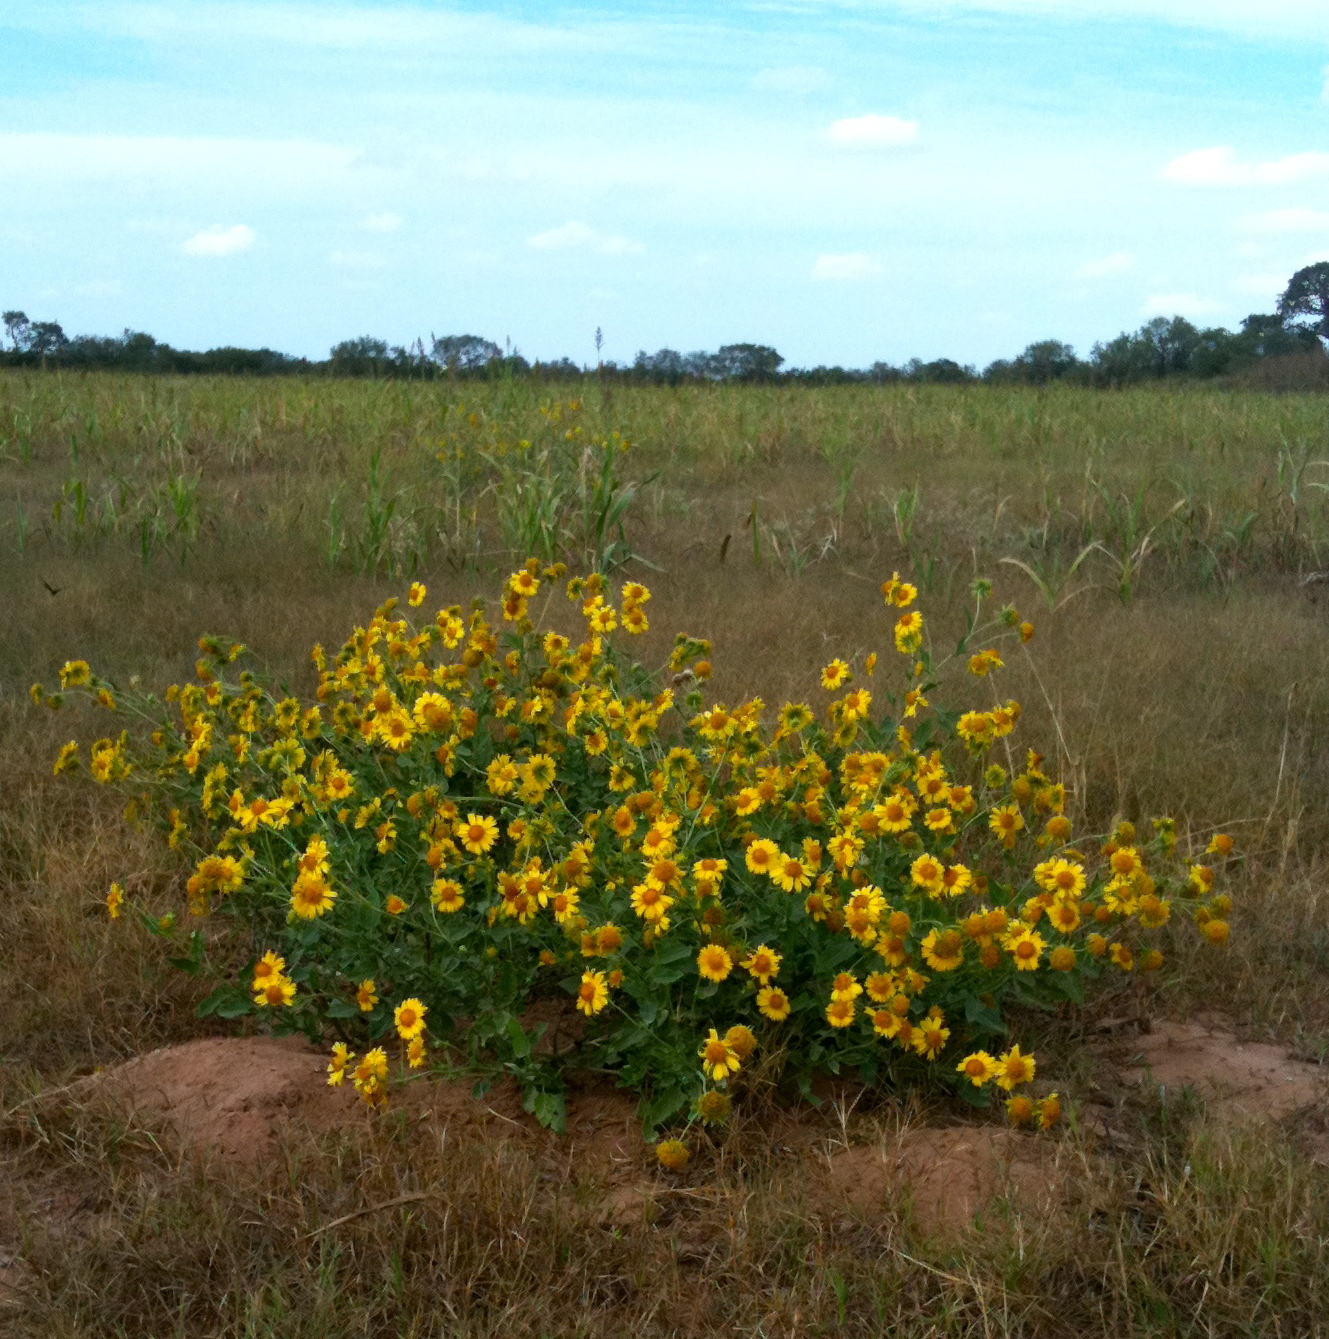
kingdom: Plantae
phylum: Tracheophyta
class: Magnoliopsida
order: Asterales
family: Asteraceae
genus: Verbesina
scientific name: Verbesina encelioides
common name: Golden crownbeard
